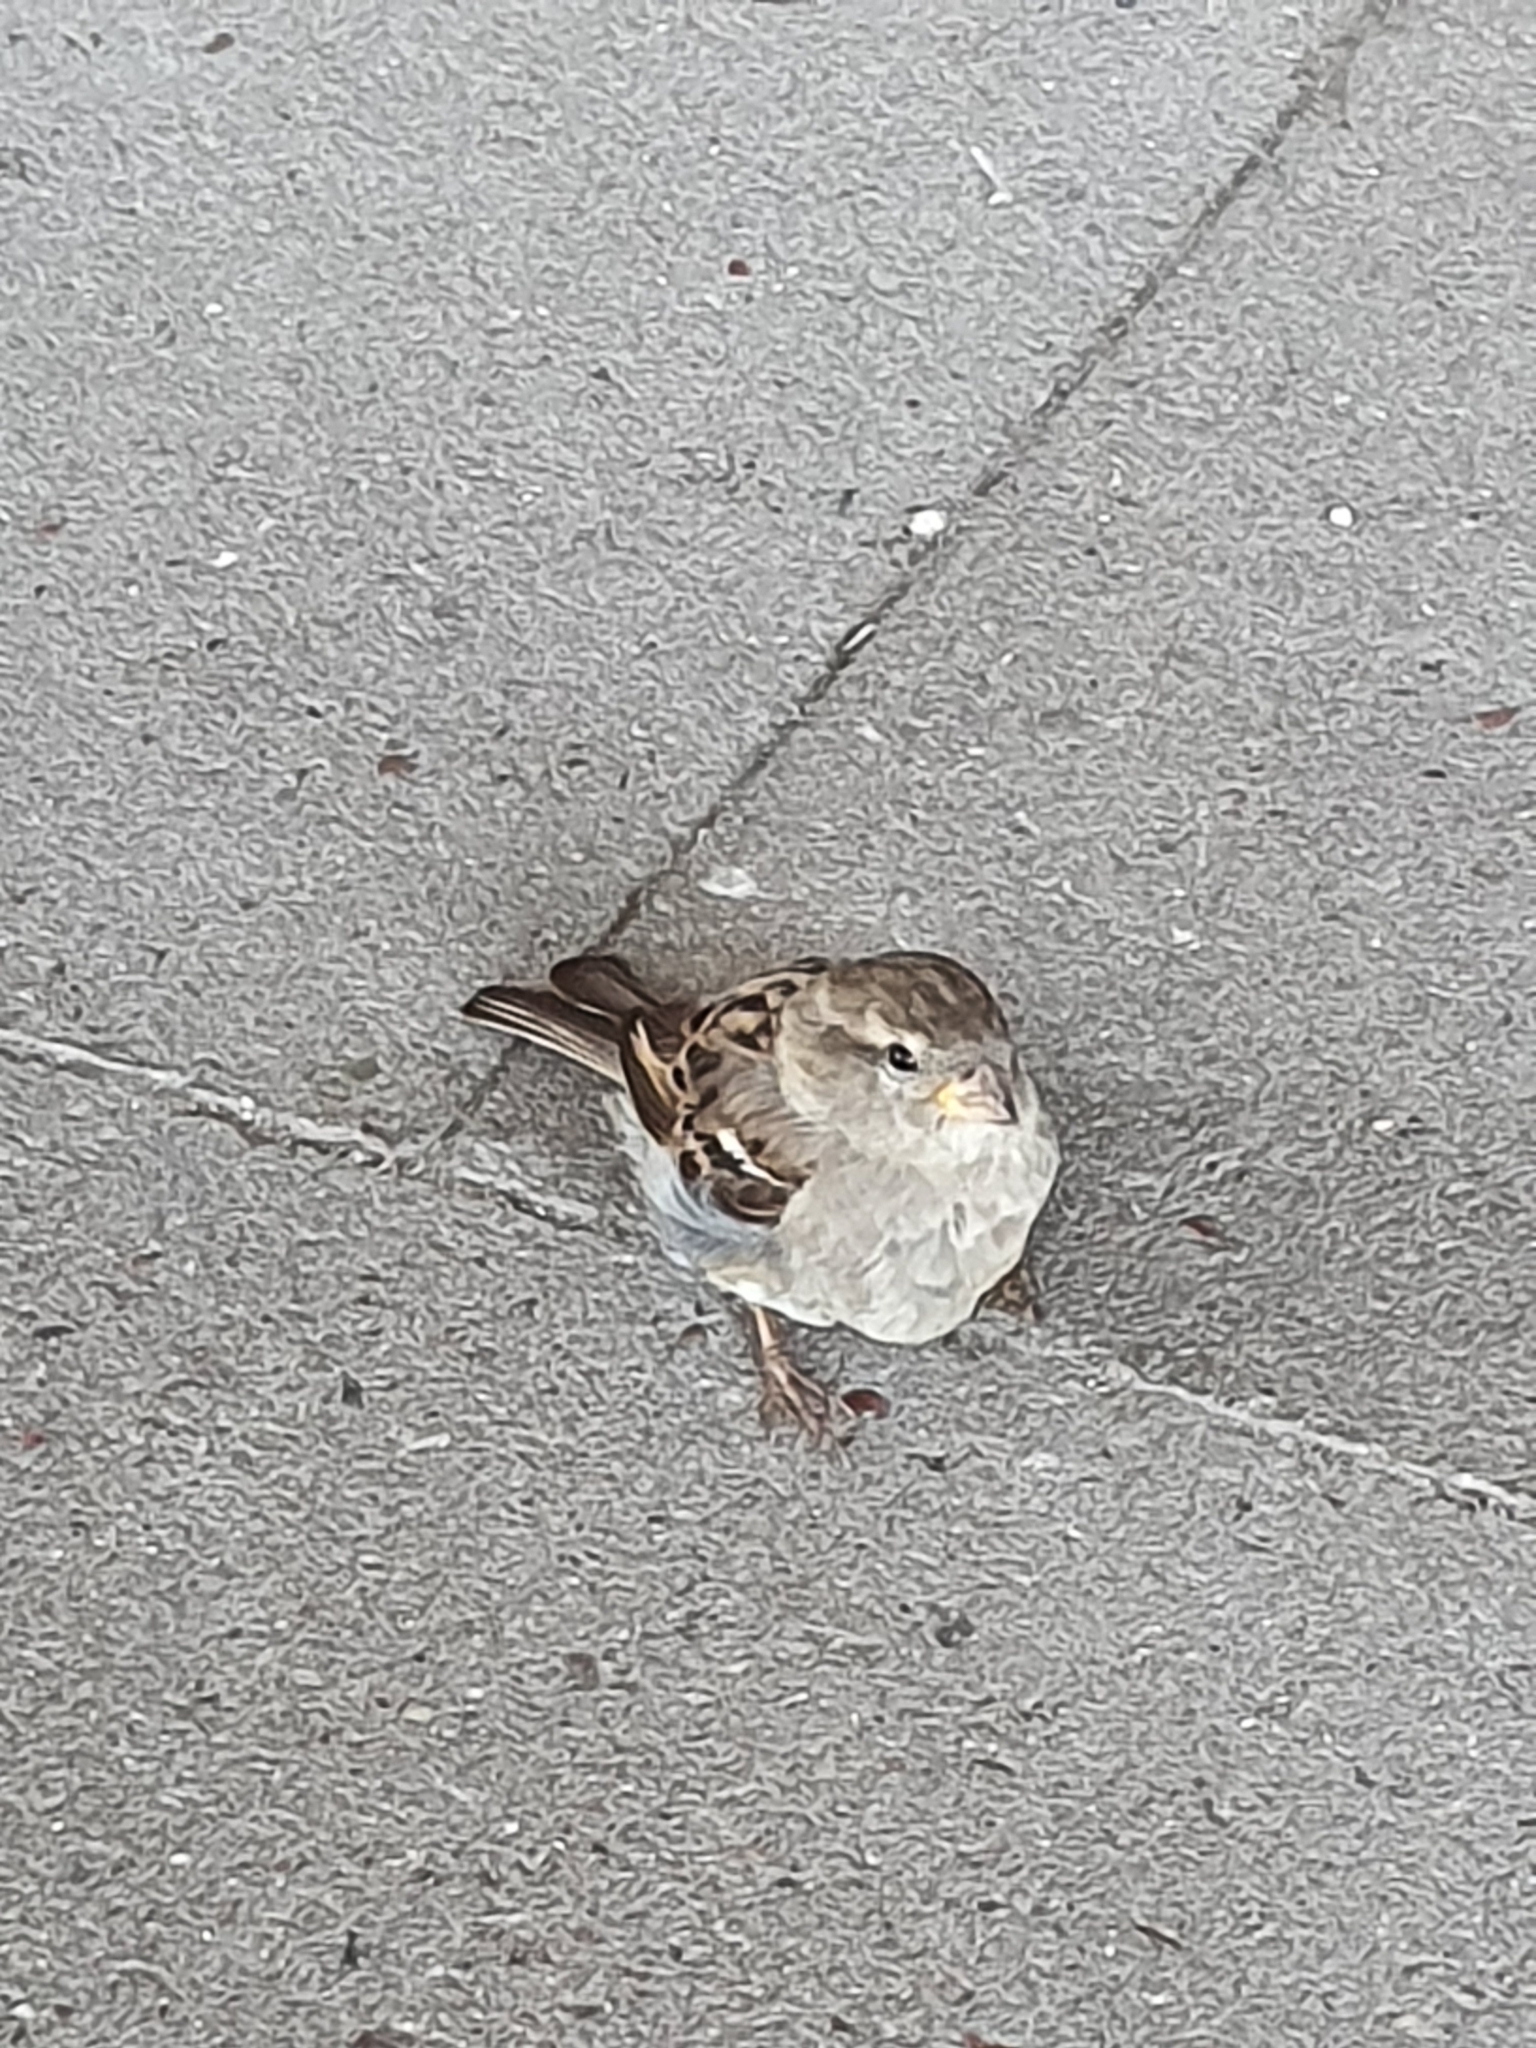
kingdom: Animalia
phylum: Chordata
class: Aves
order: Passeriformes
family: Passeridae
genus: Passer
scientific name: Passer domesticus
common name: House sparrow
